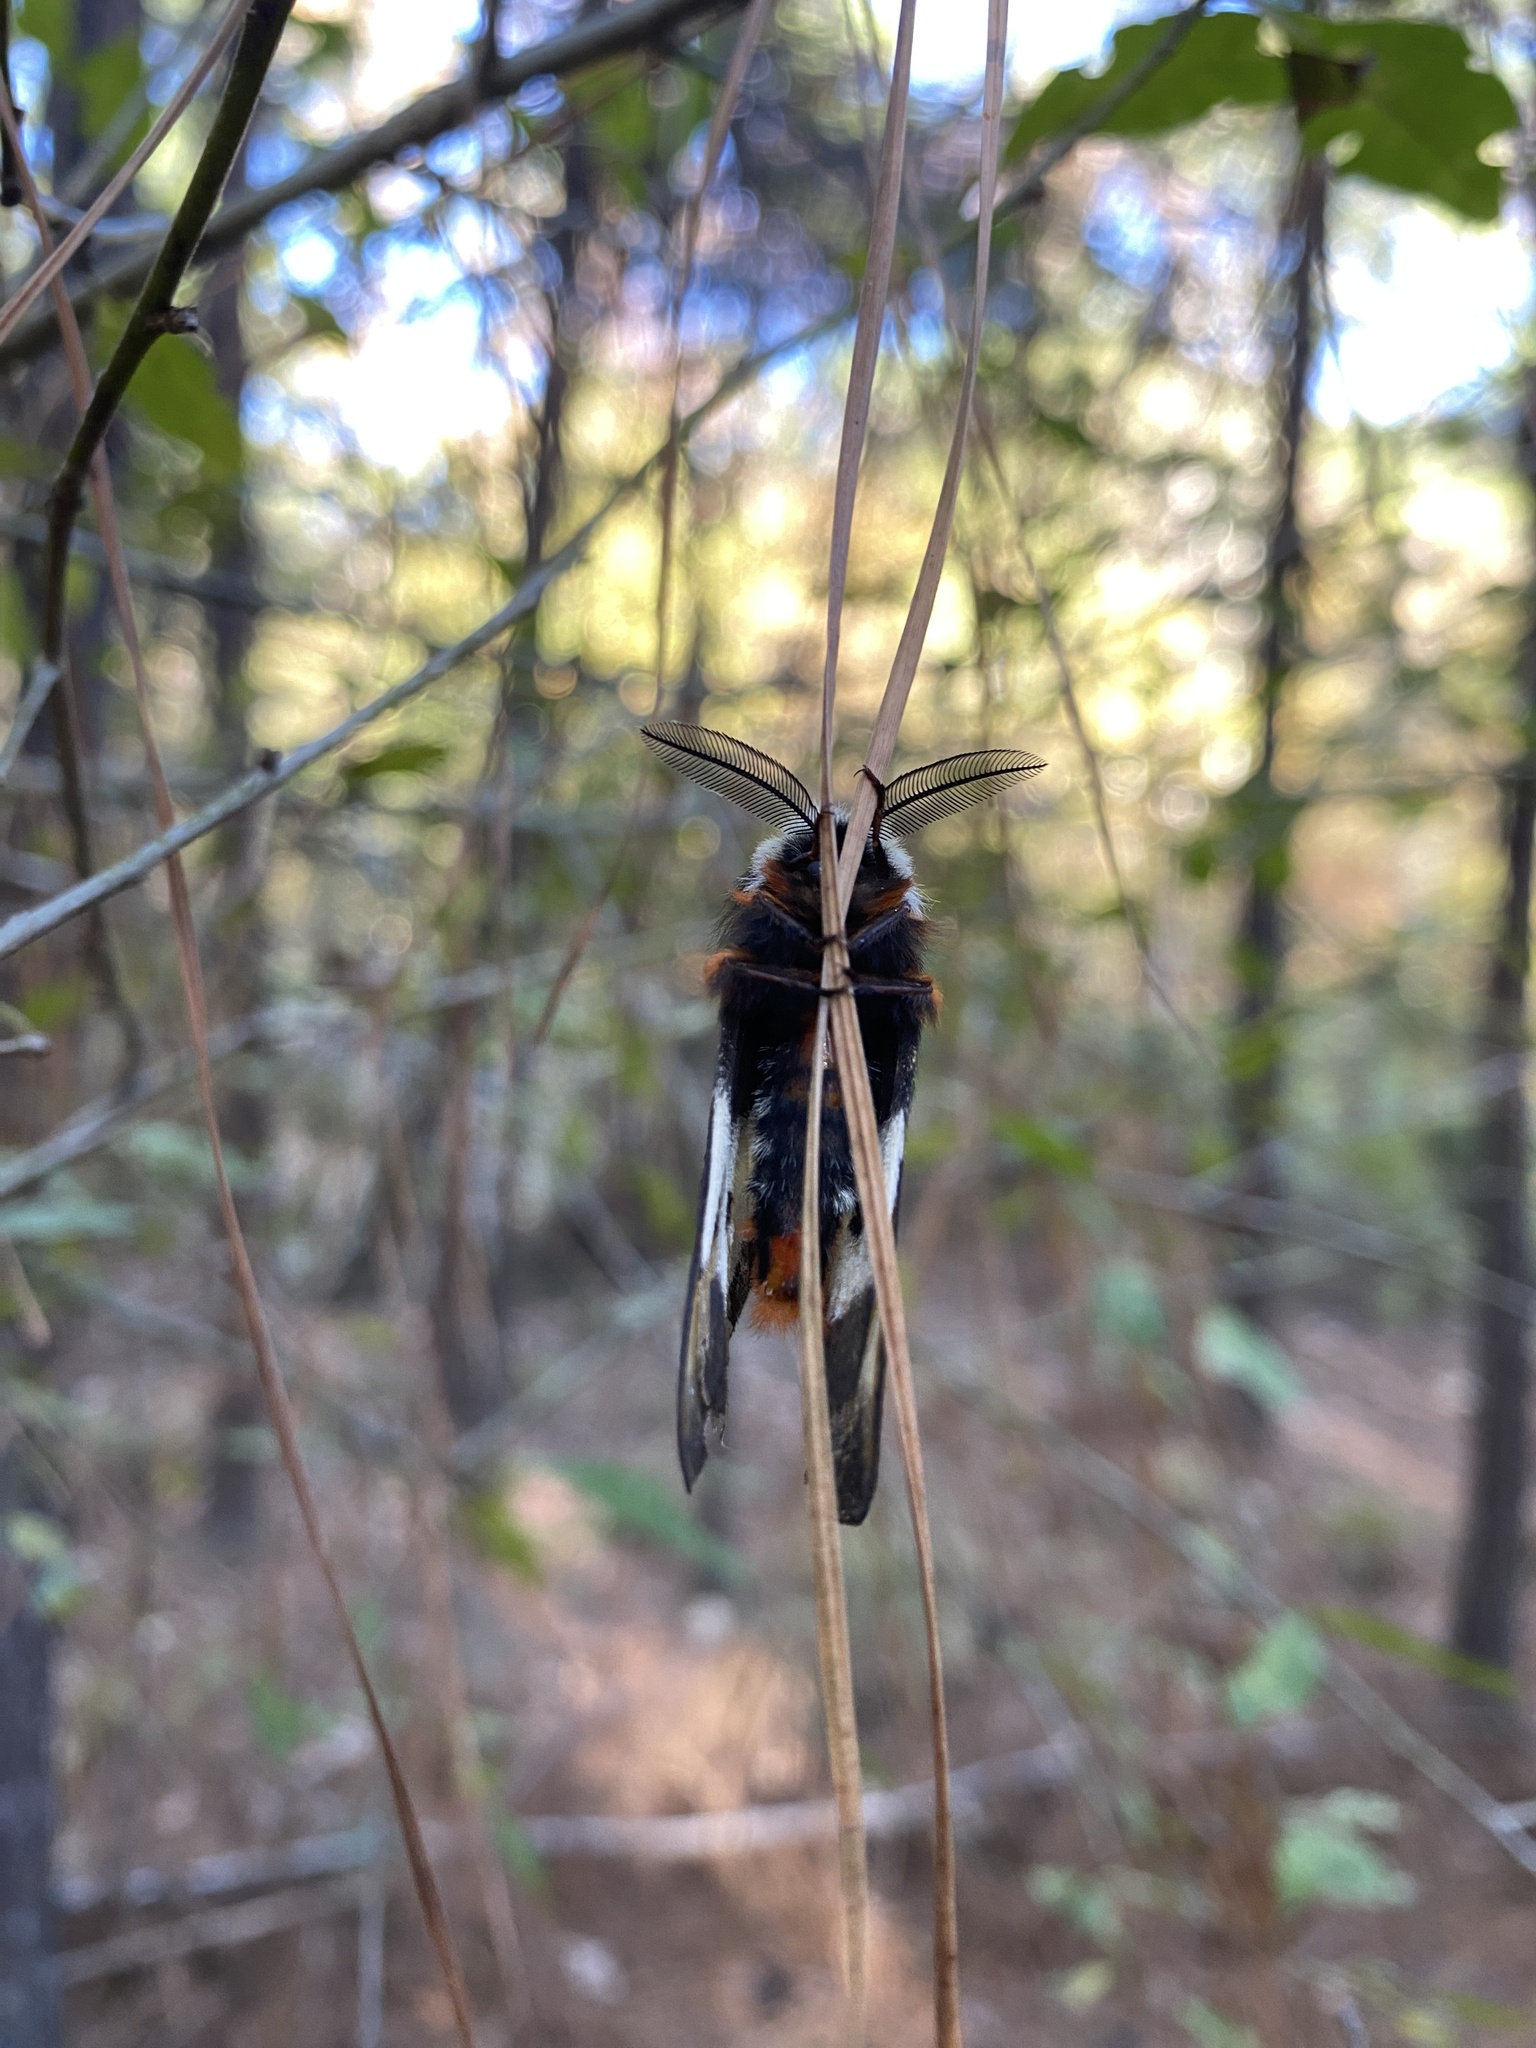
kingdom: Animalia
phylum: Arthropoda
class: Insecta
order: Lepidoptera
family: Saturniidae
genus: Hemileuca
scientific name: Hemileuca maia
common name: Eastern buckmoth
